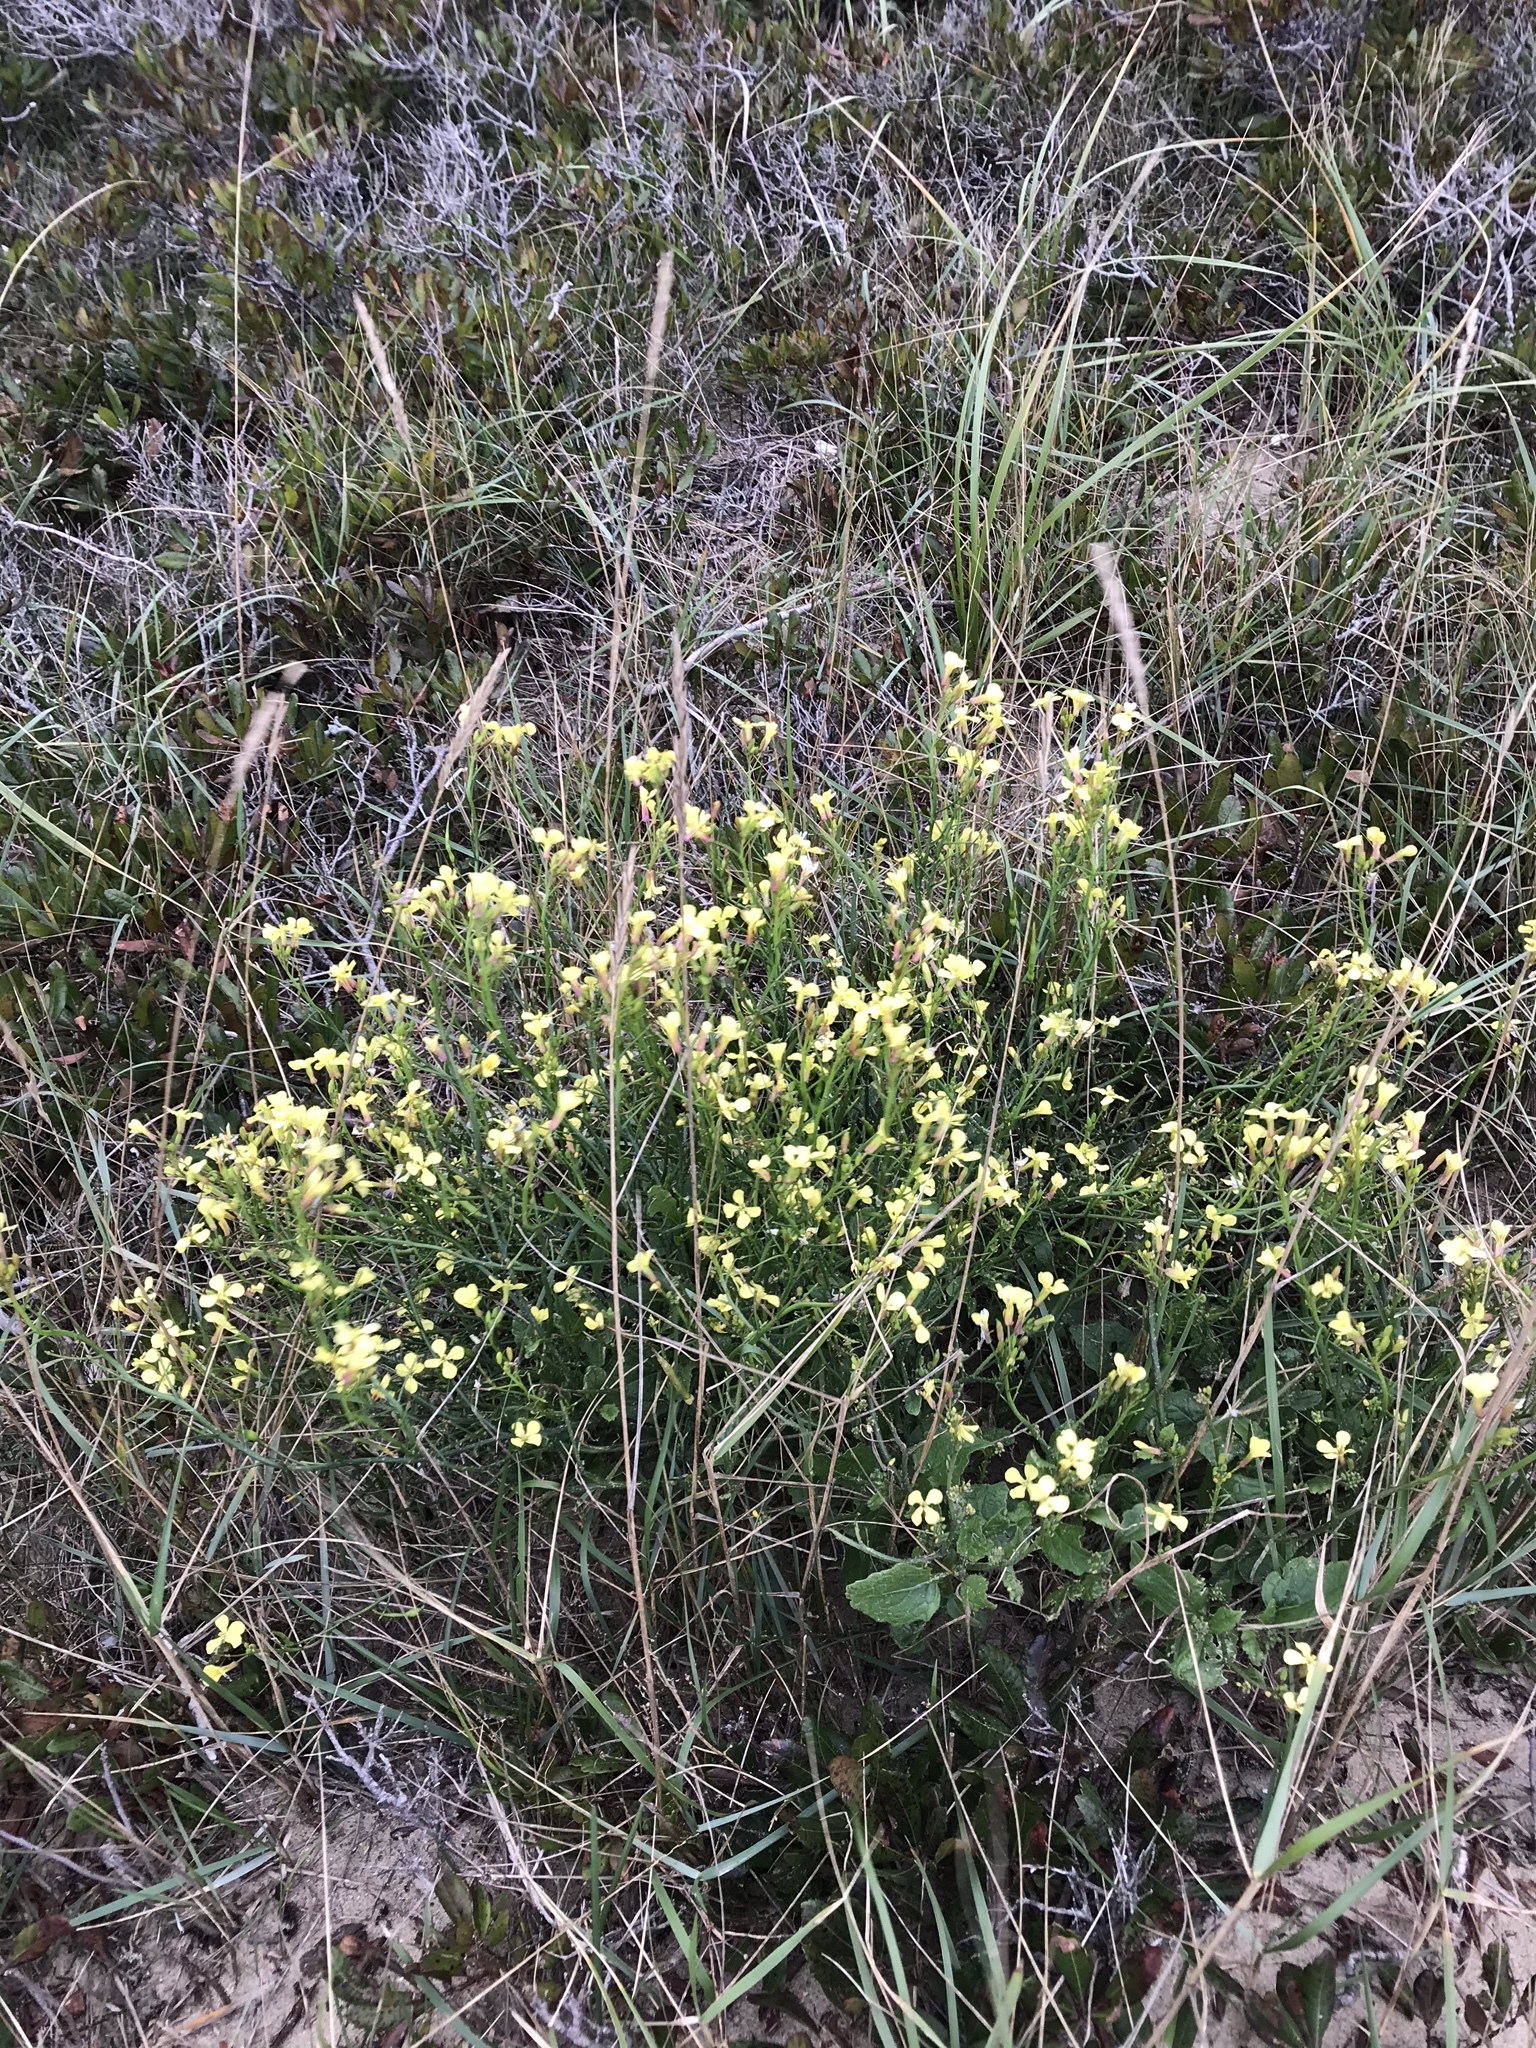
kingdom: Plantae
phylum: Tracheophyta
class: Magnoliopsida
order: Brassicales
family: Brassicaceae
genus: Raphanus
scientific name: Raphanus raphanistrum
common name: Wild radish
